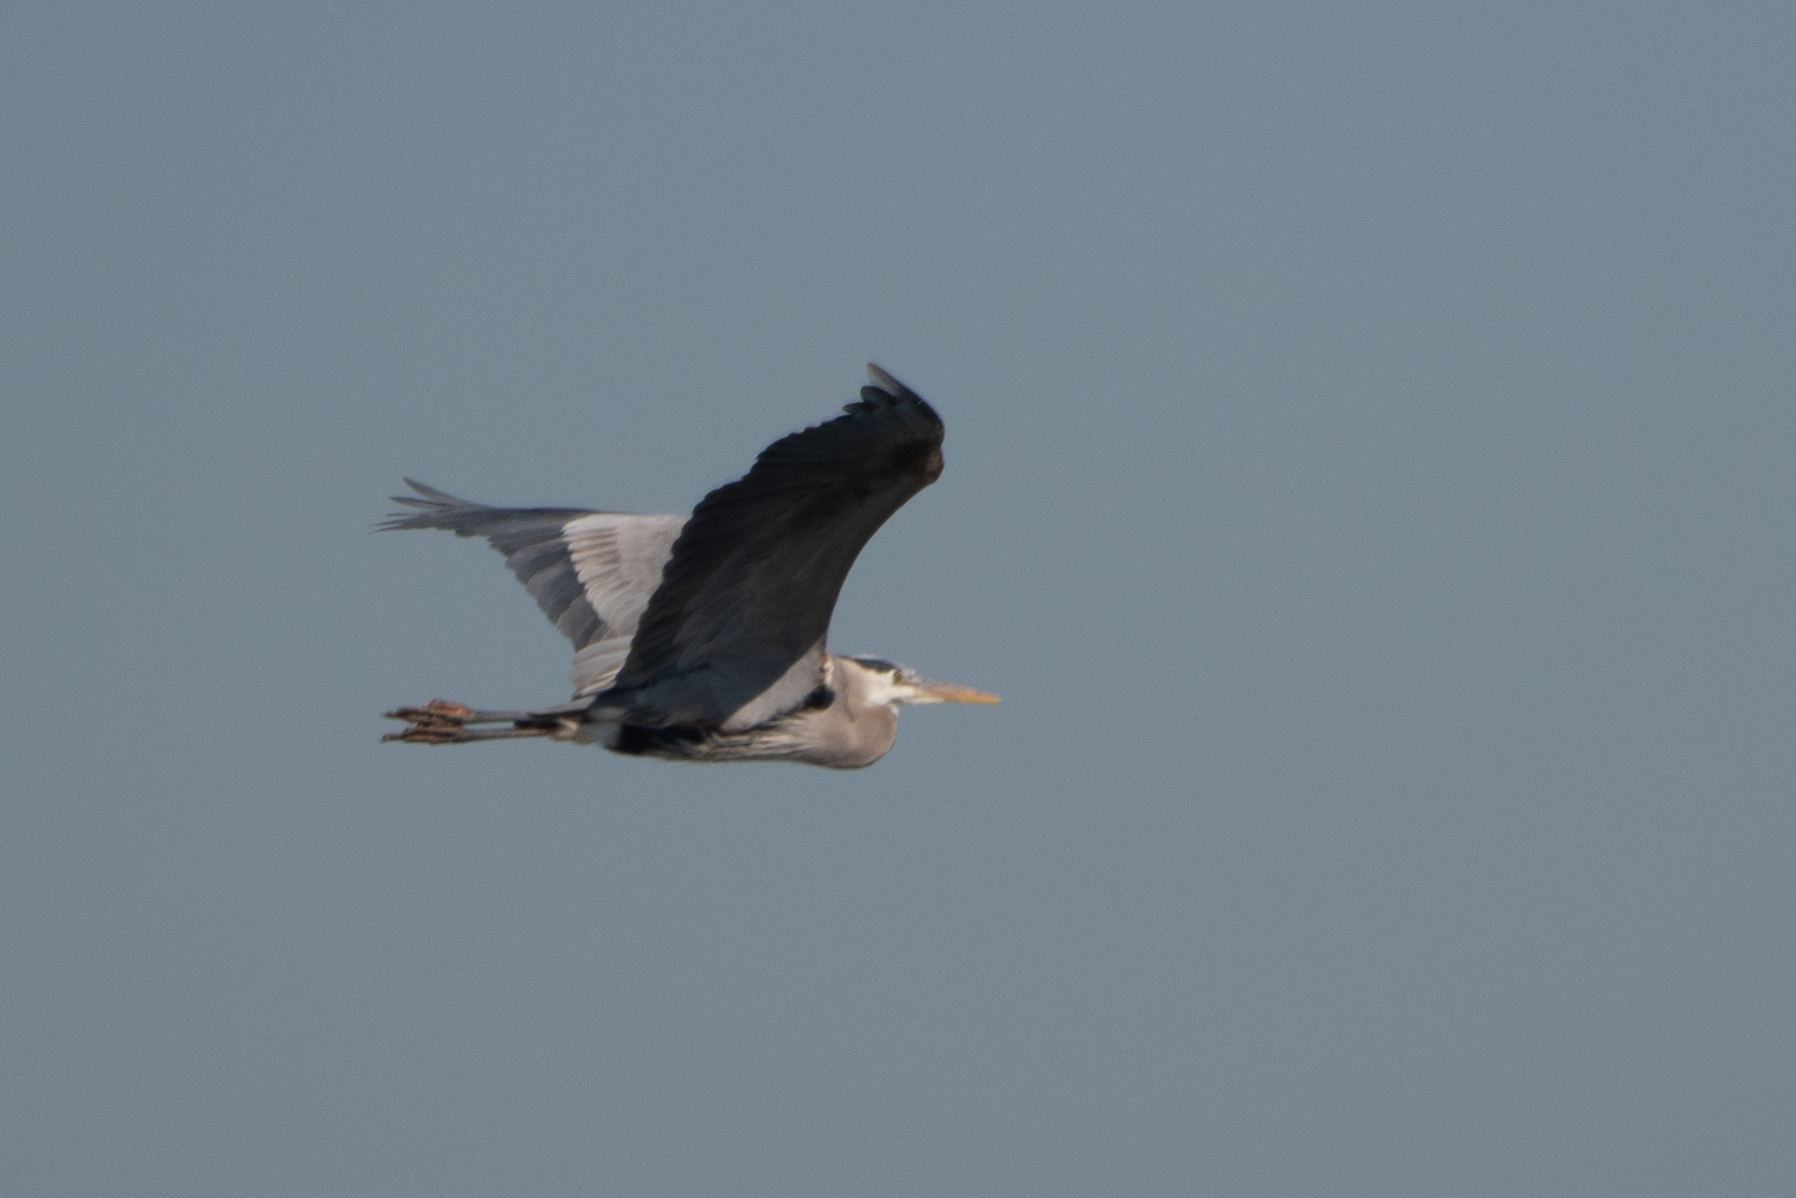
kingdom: Animalia
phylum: Chordata
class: Aves
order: Pelecaniformes
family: Ardeidae
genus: Ardea
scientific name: Ardea herodias
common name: Great blue heron
